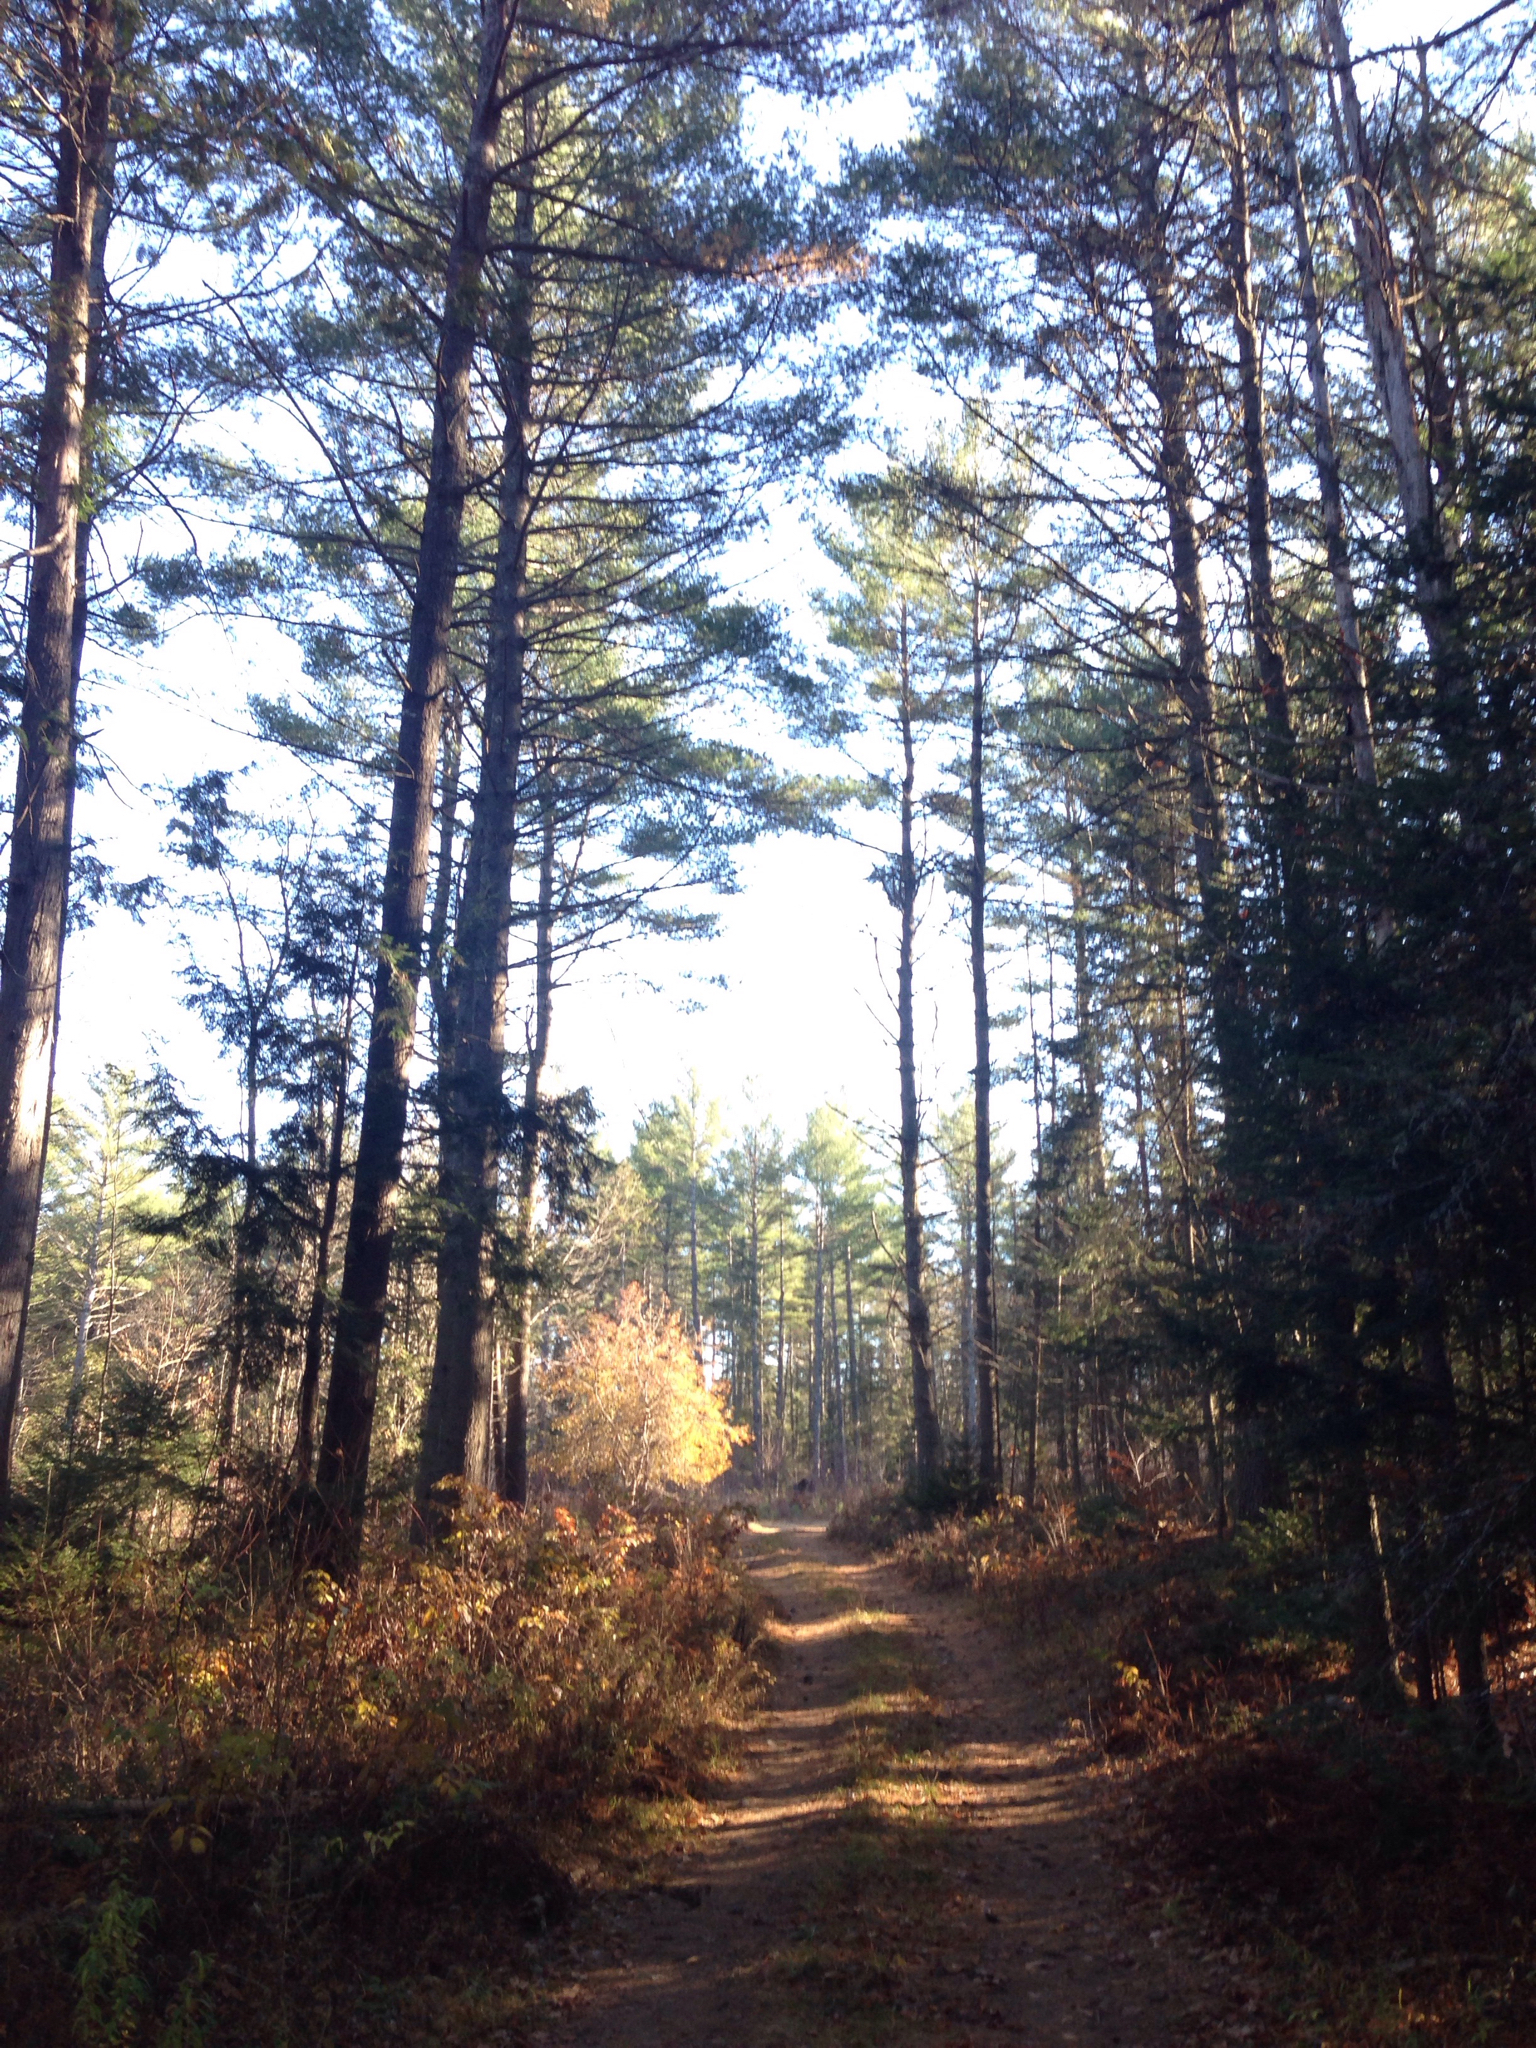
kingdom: Plantae
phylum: Tracheophyta
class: Pinopsida
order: Pinales
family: Pinaceae
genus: Pinus
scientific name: Pinus strobus
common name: Weymouth pine
